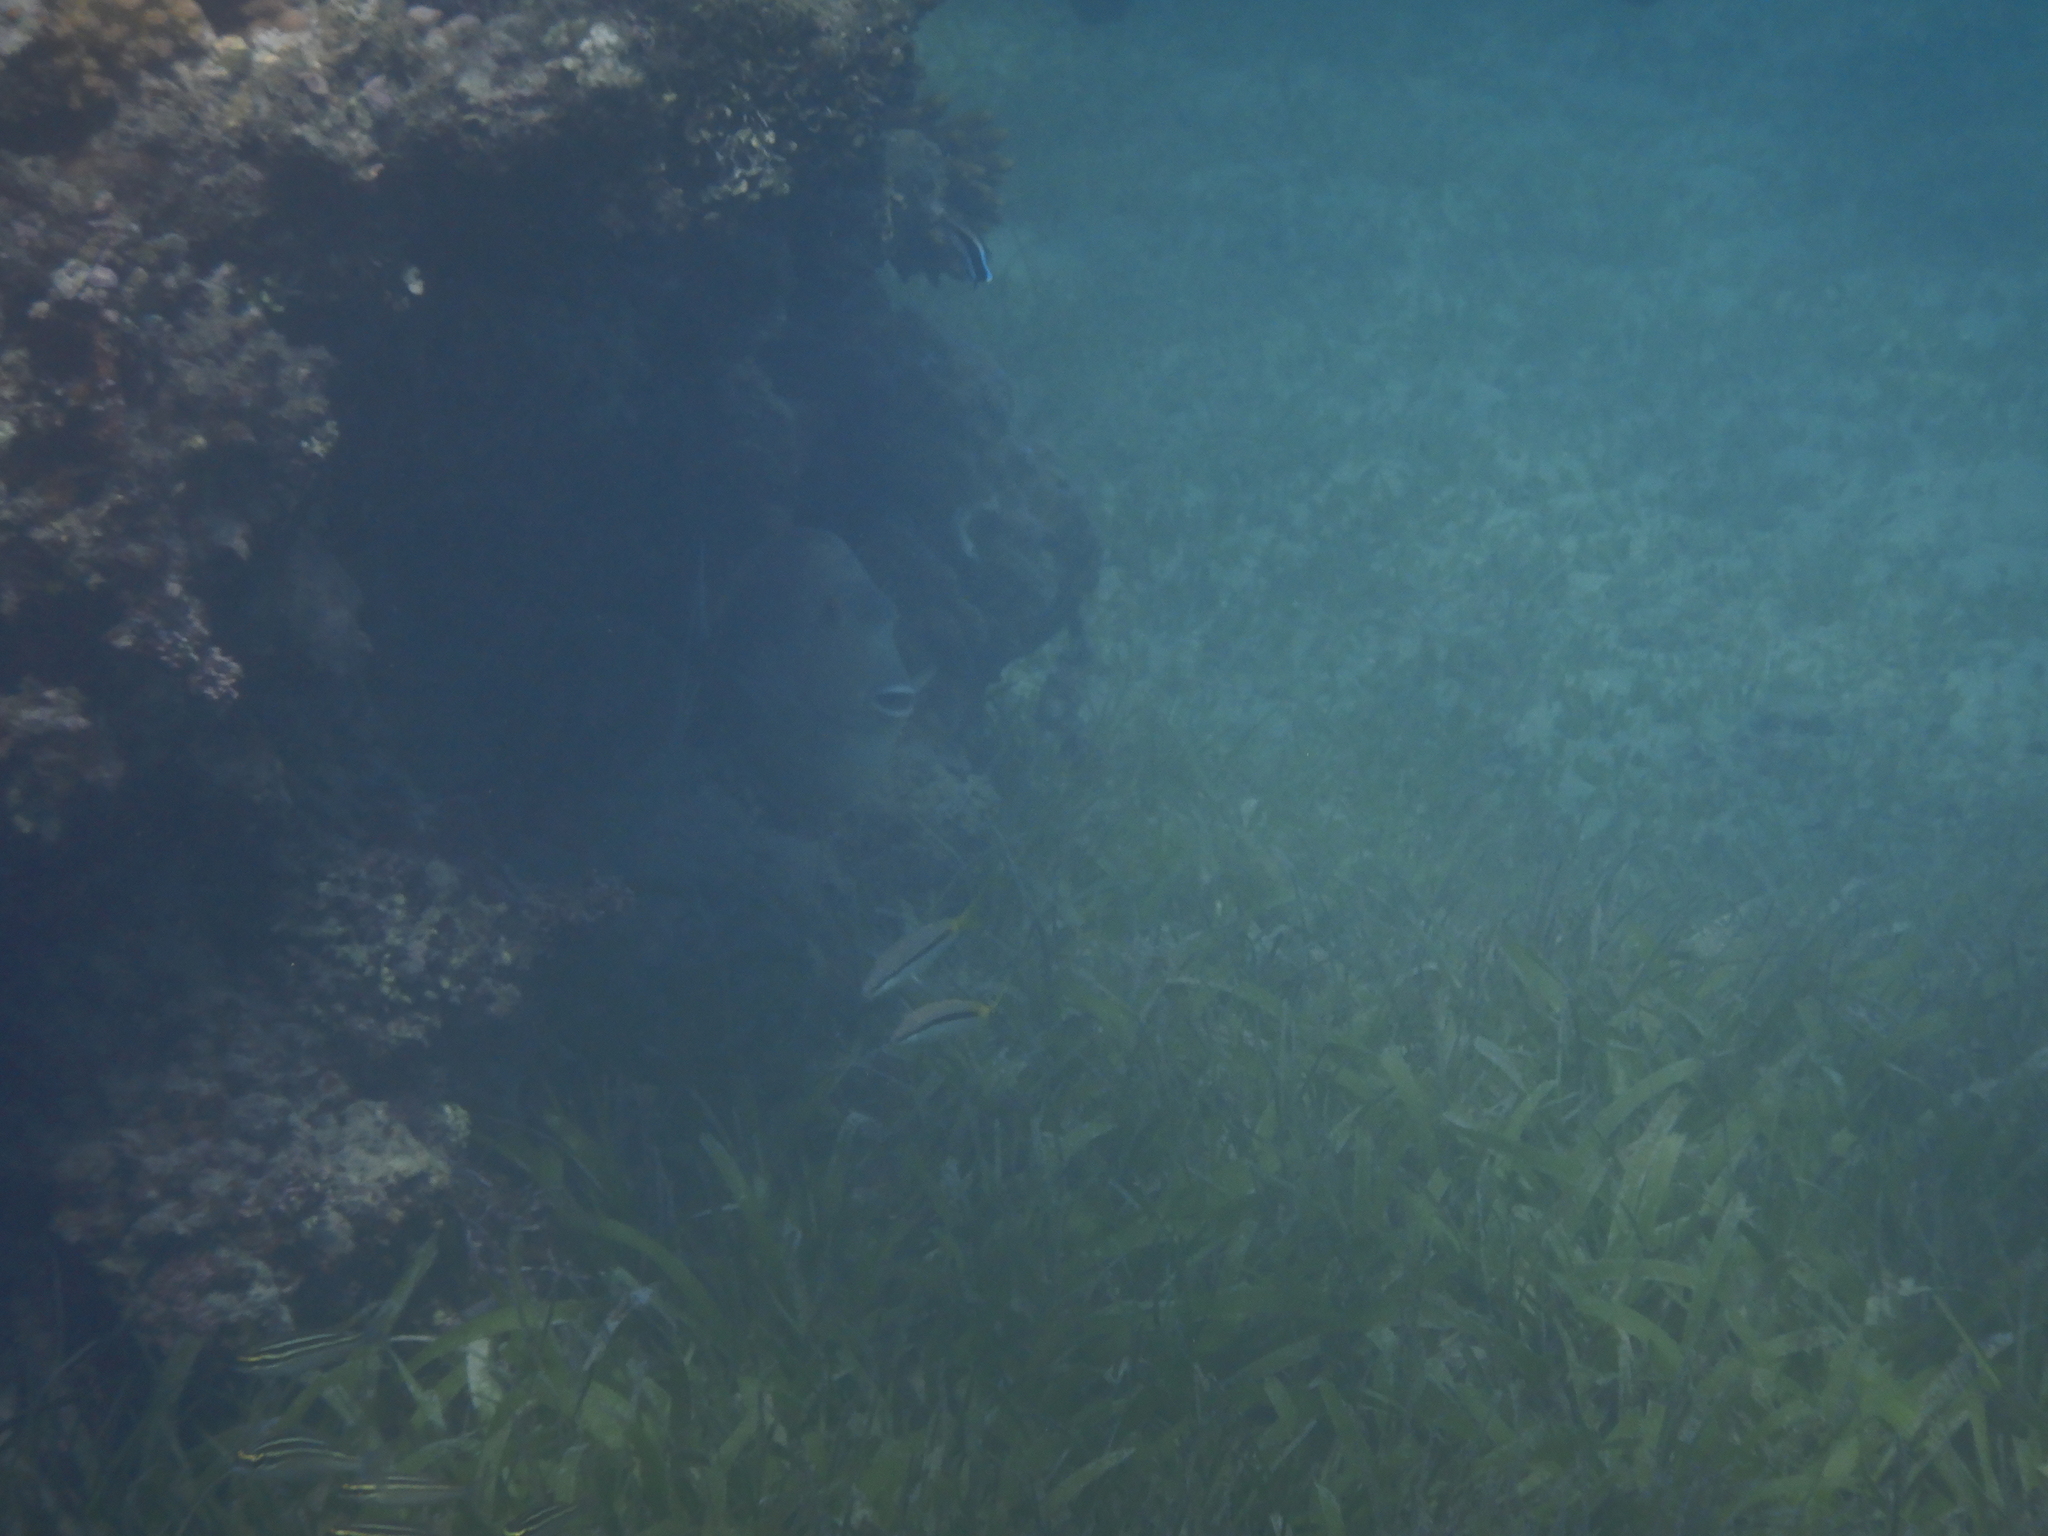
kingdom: Animalia
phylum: Chordata
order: Perciformes
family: Mullidae
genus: Parupeneus
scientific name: Parupeneus forsskali
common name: Red sea goatfish
